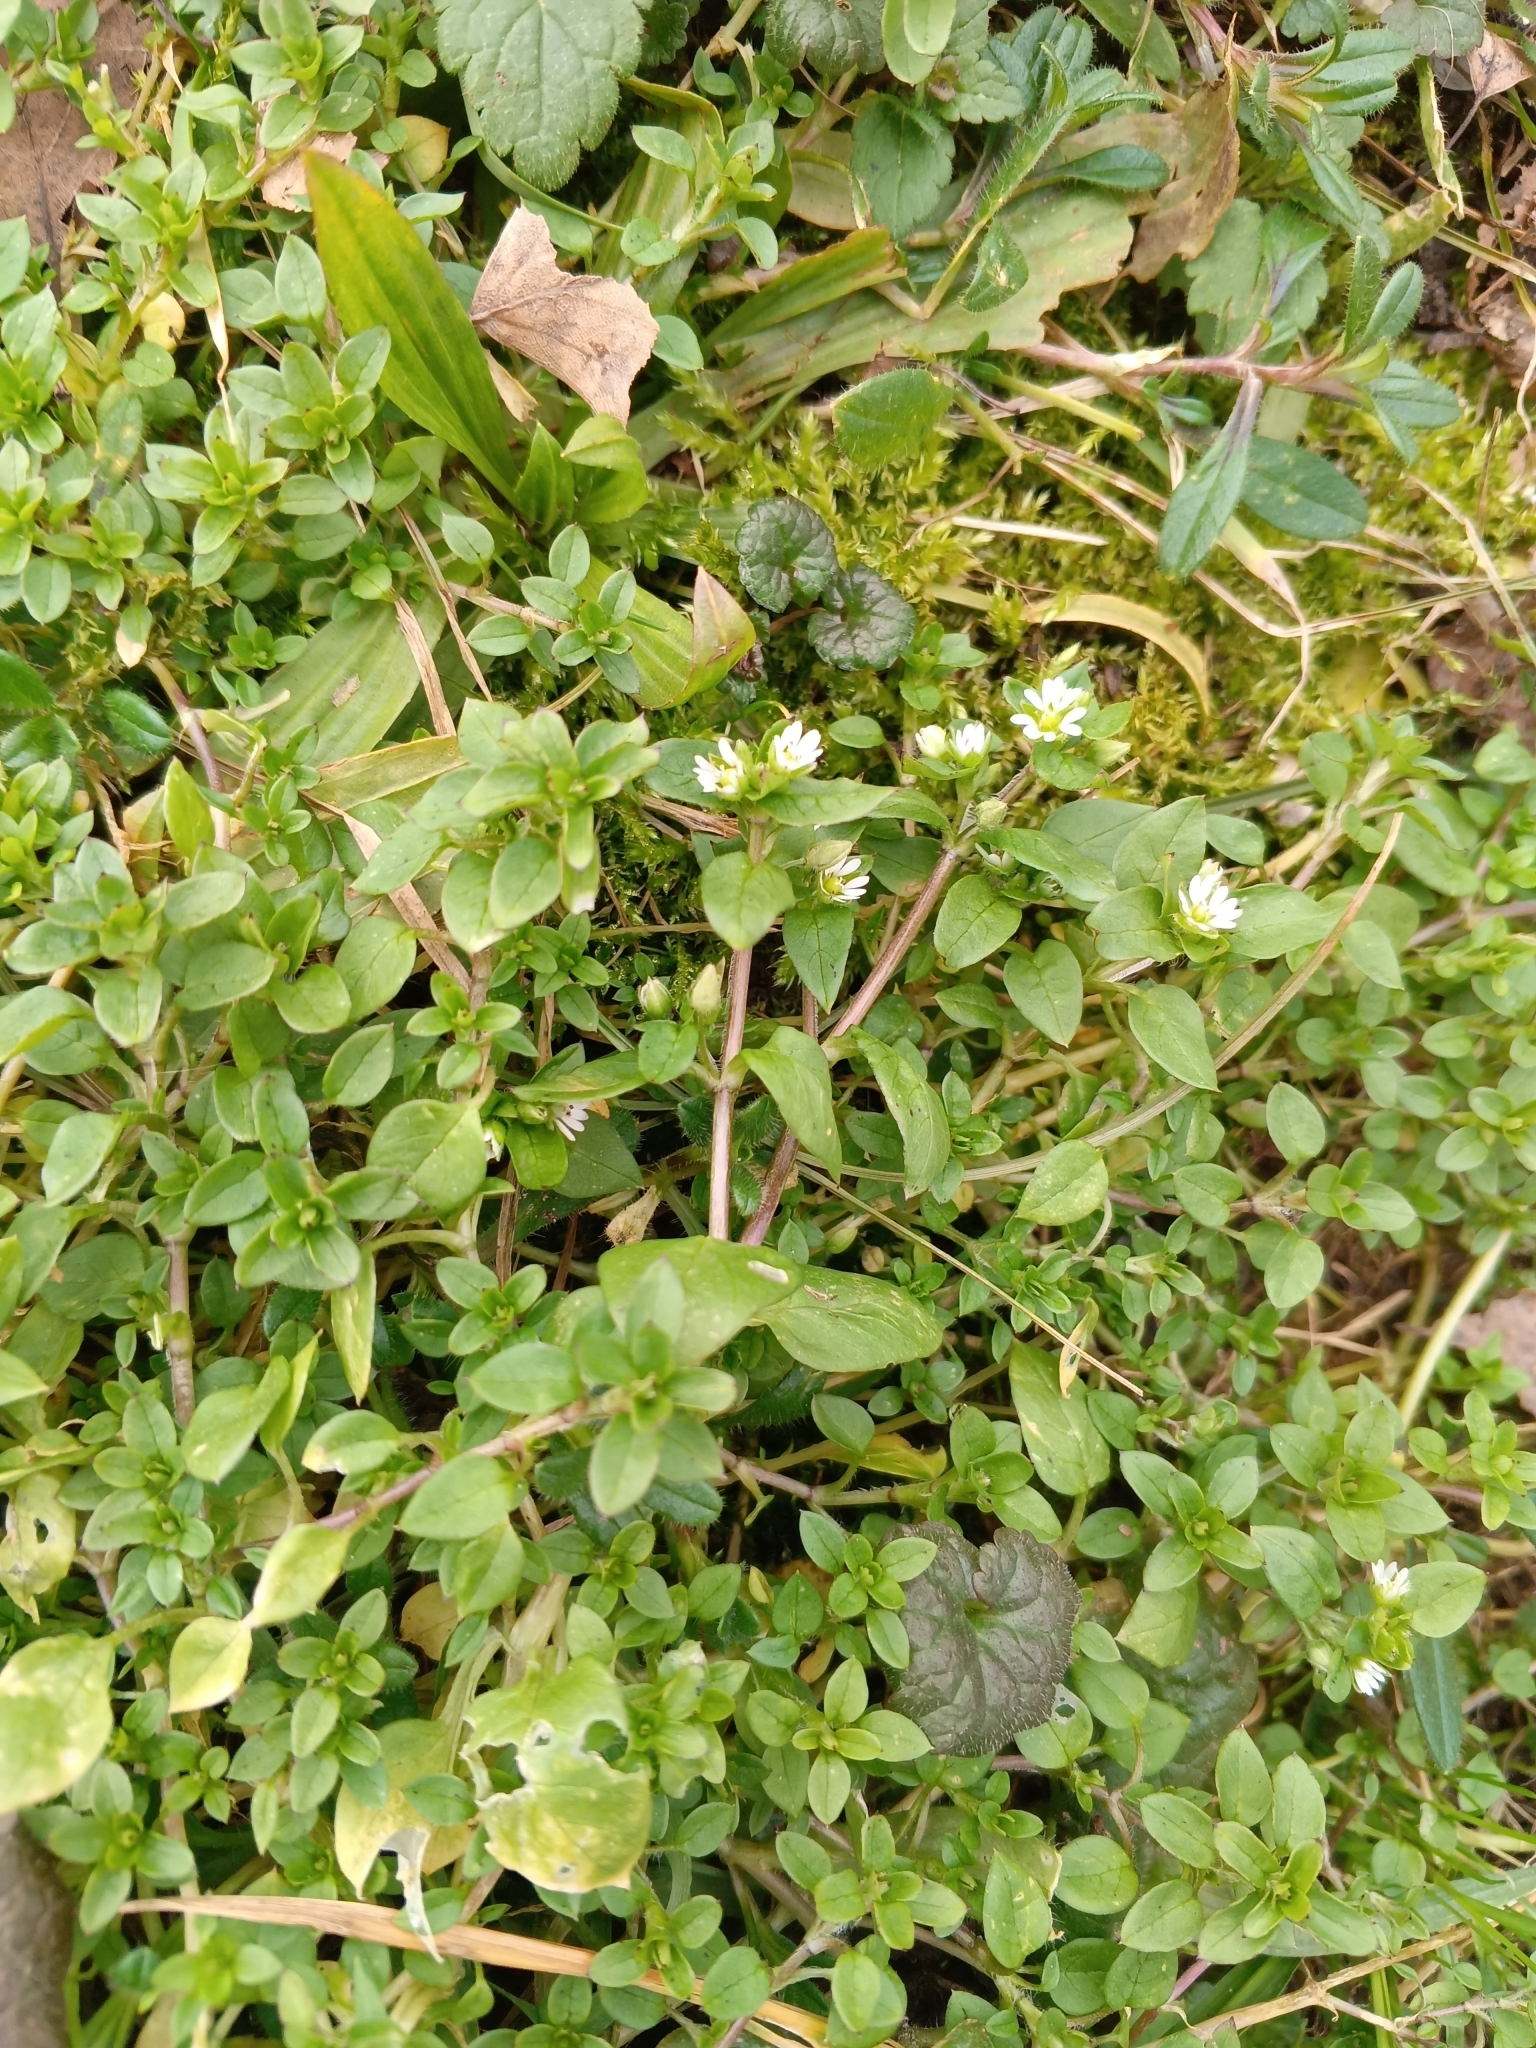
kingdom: Plantae
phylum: Tracheophyta
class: Magnoliopsida
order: Caryophyllales
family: Caryophyllaceae
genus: Stellaria
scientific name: Stellaria media
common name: Common chickweed
